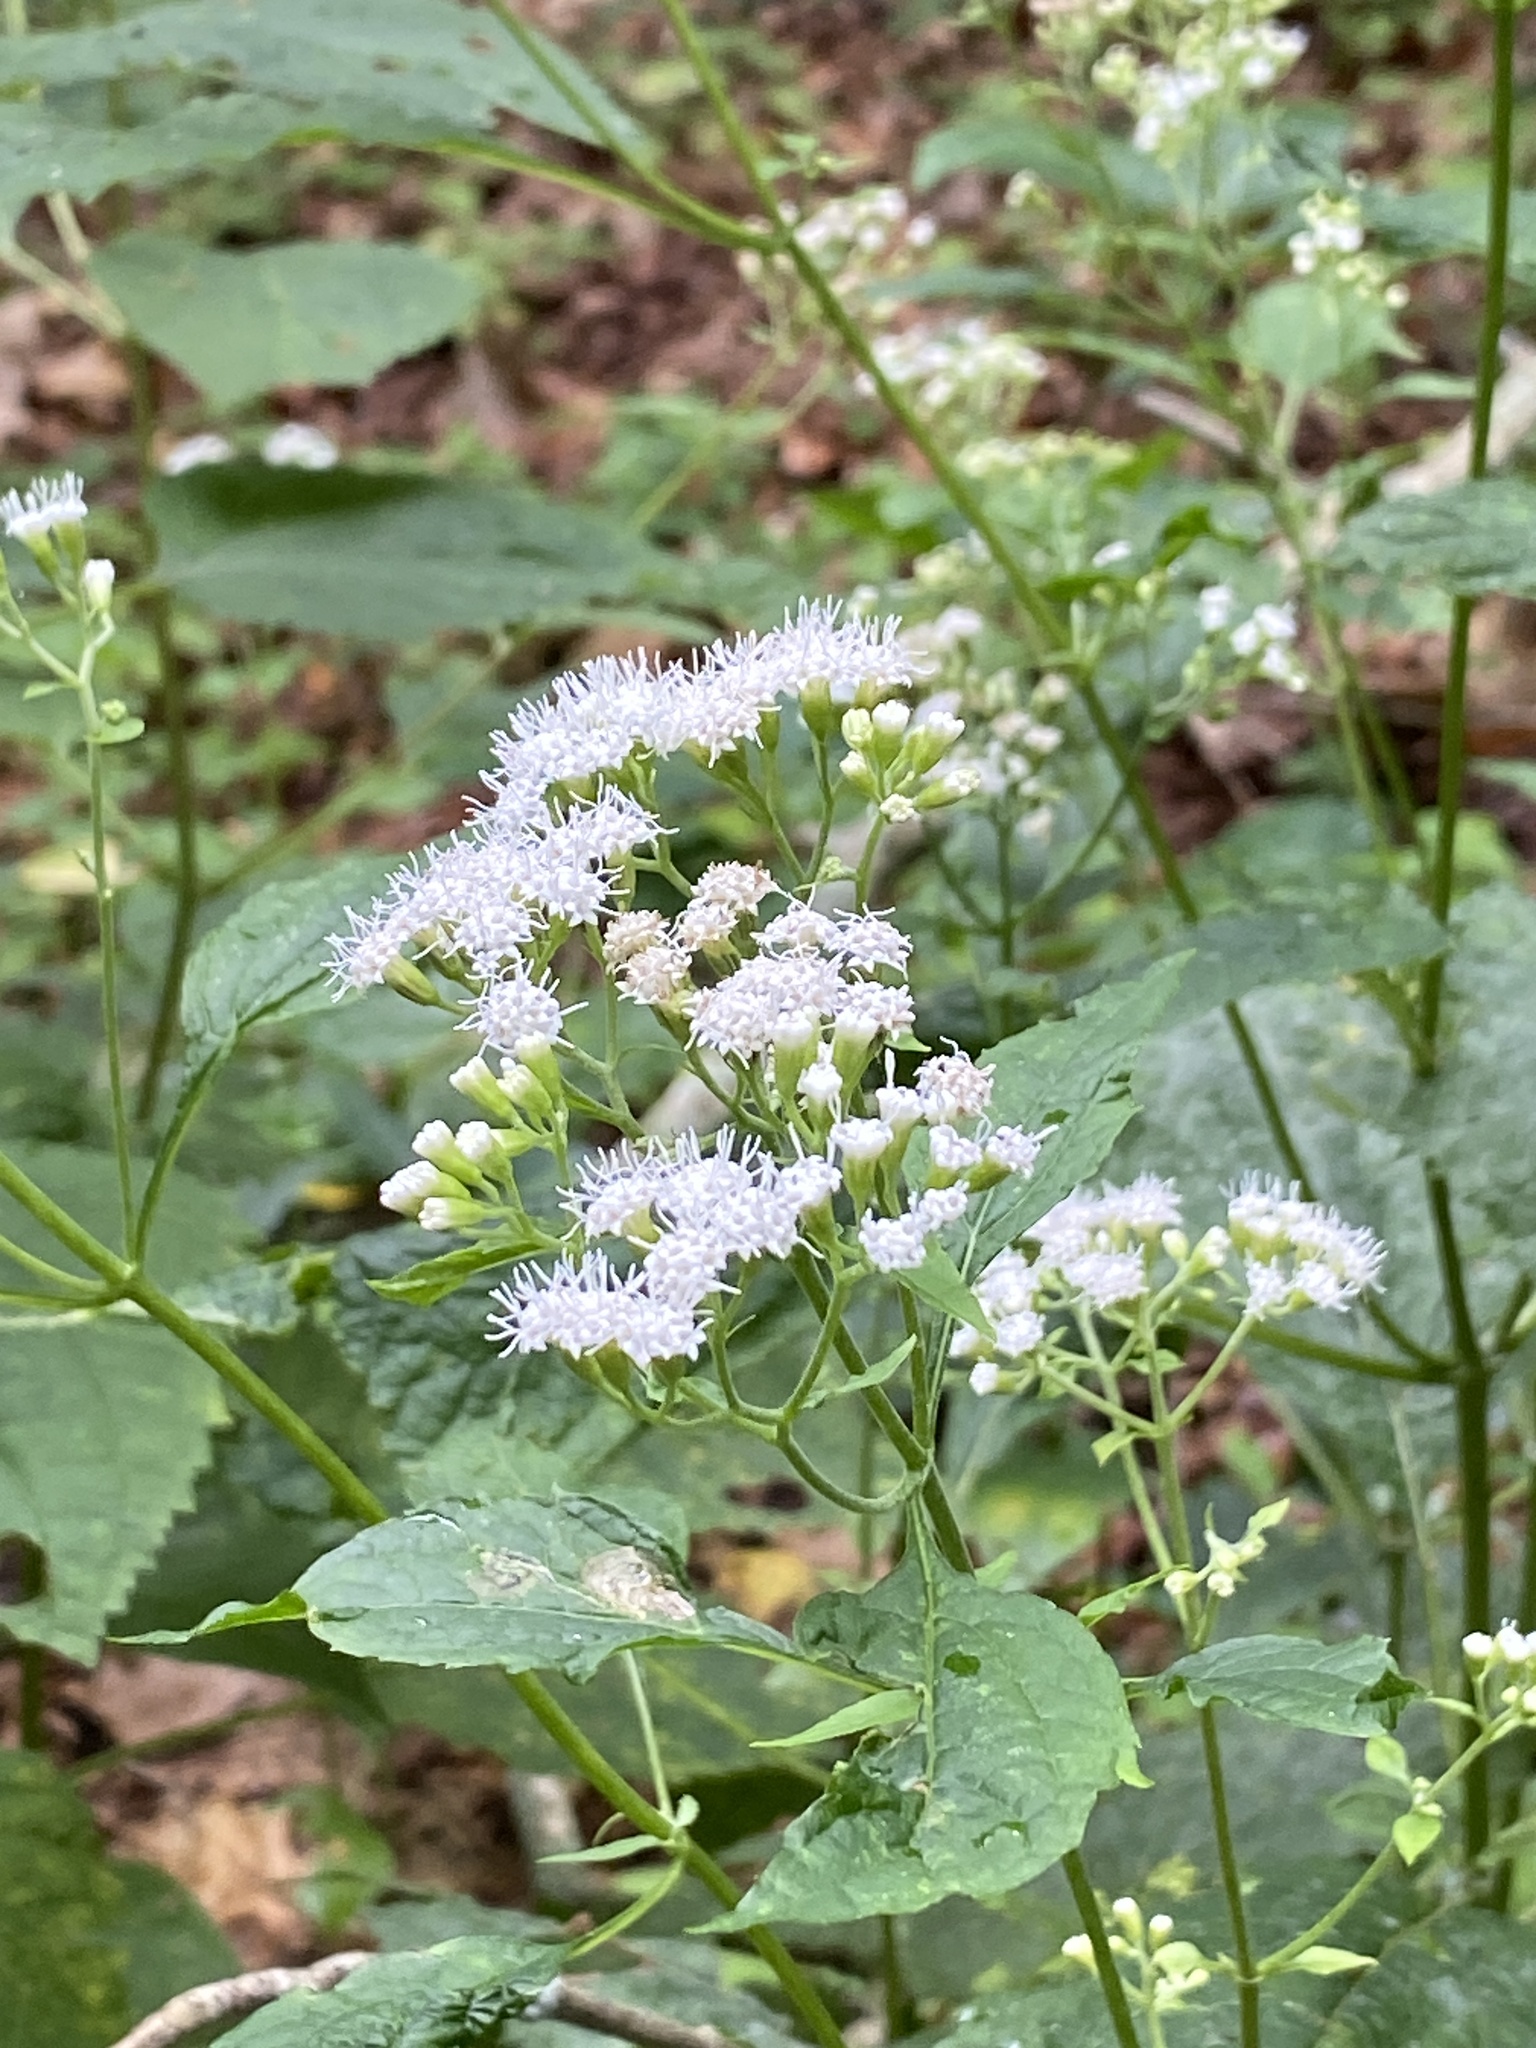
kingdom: Plantae
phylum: Tracheophyta
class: Magnoliopsida
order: Asterales
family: Asteraceae
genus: Ageratina
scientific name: Ageratina altissima
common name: White snakeroot
